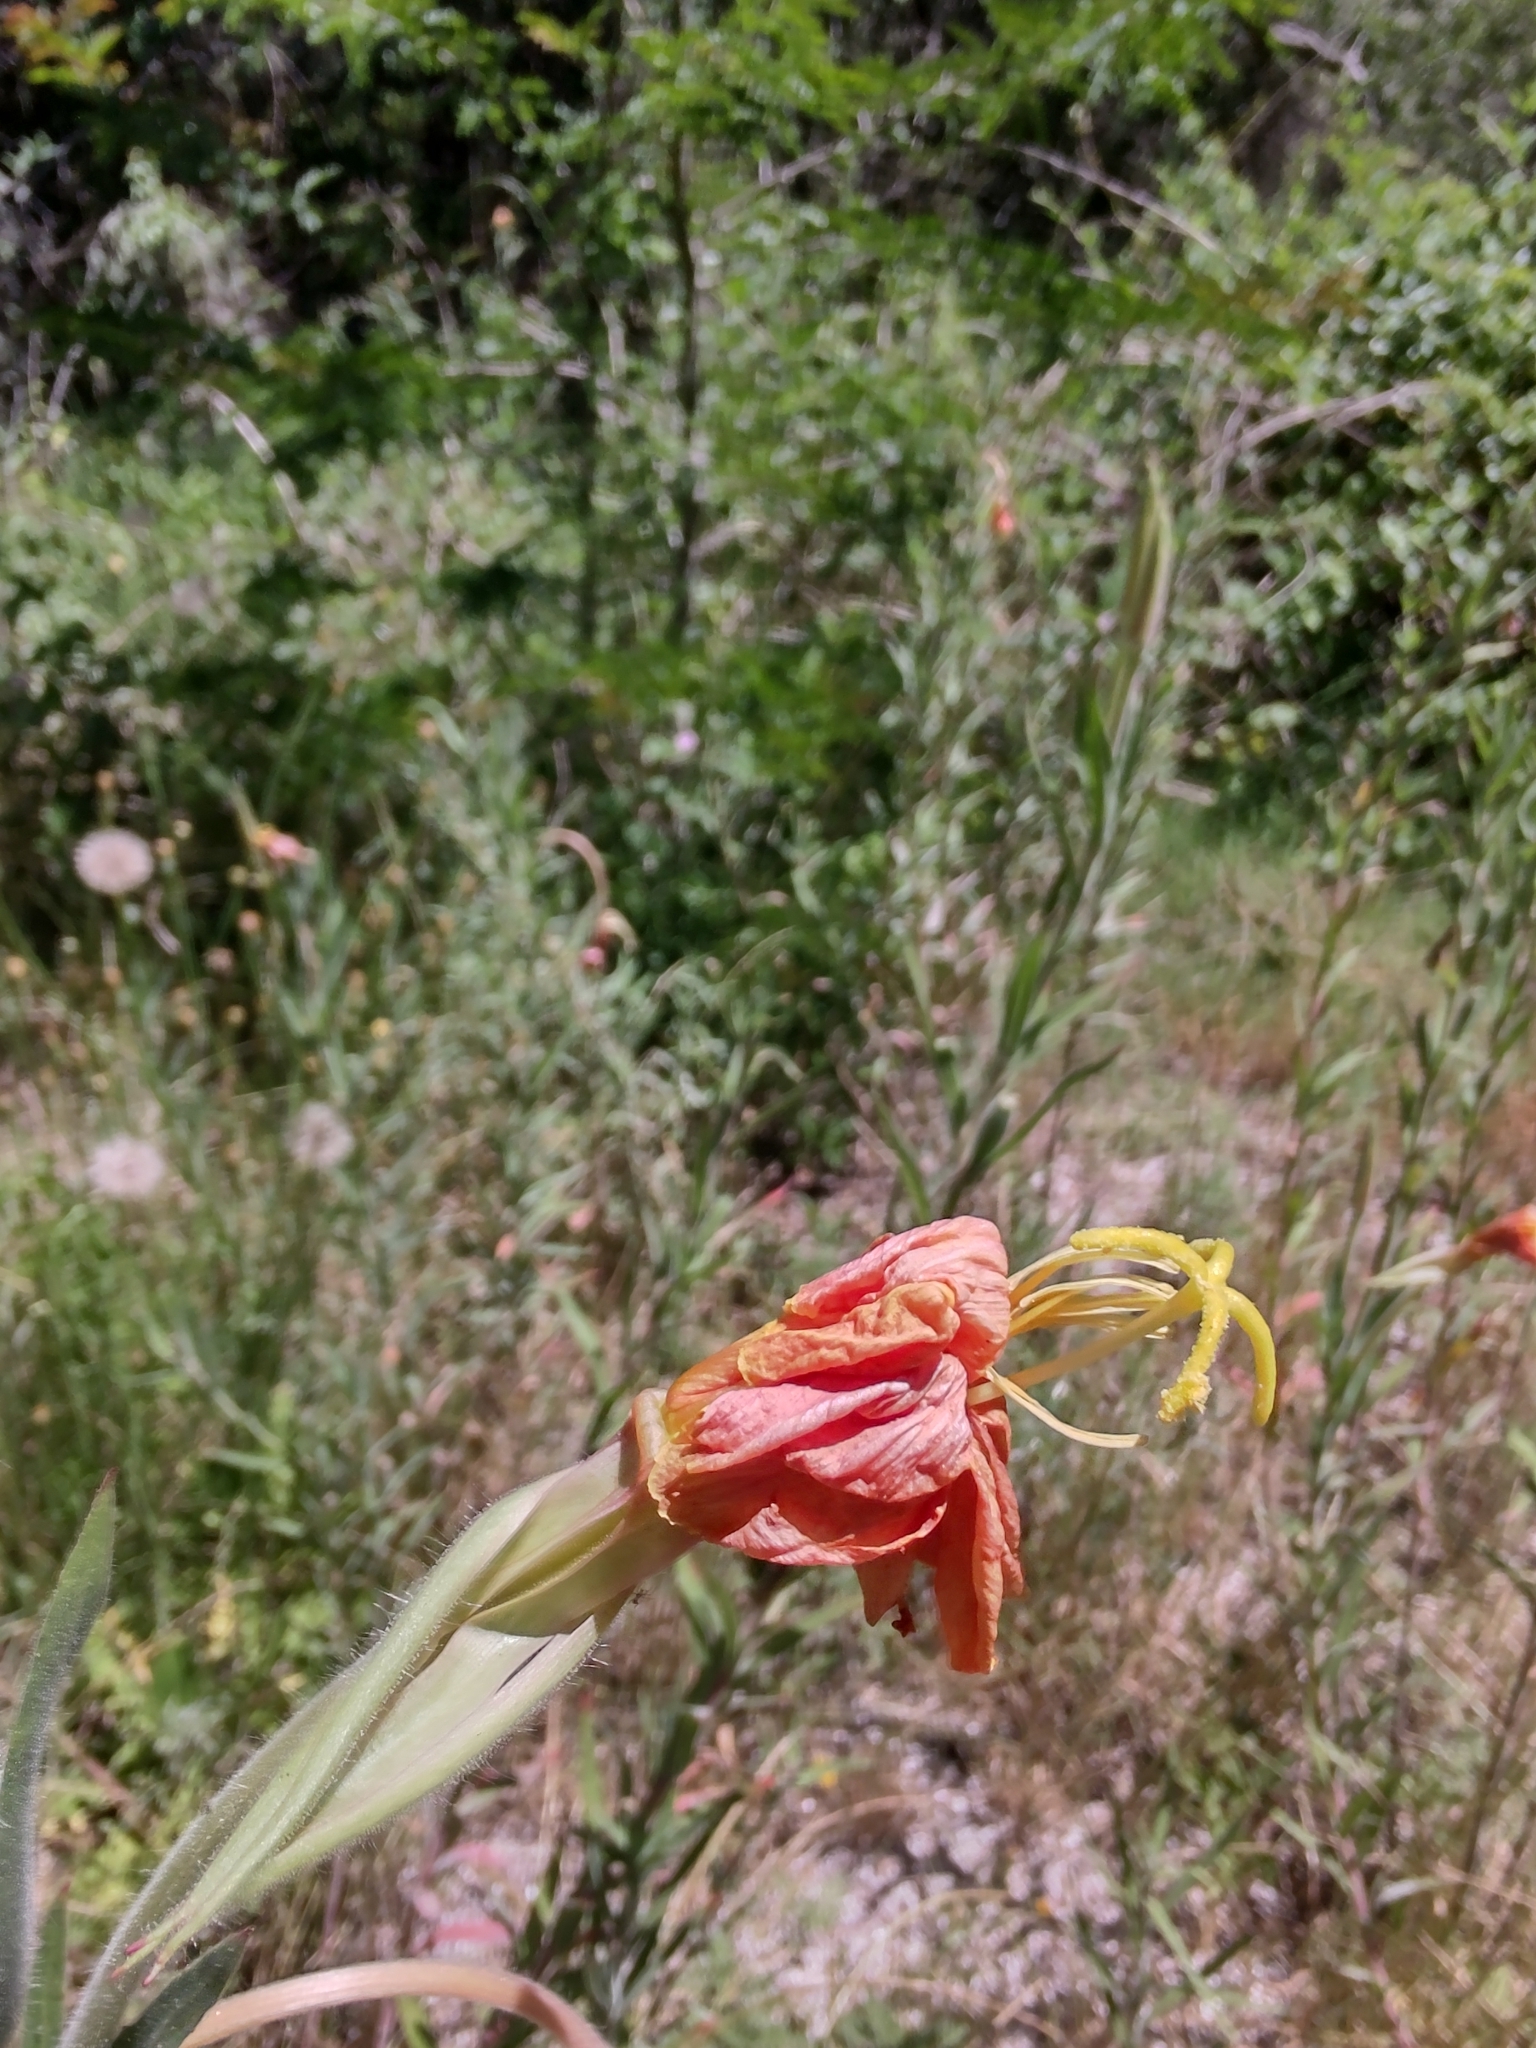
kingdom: Plantae
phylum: Tracheophyta
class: Magnoliopsida
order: Myrtales
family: Onagraceae
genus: Oenothera
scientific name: Oenothera affinis
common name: Longflower evening primrose
